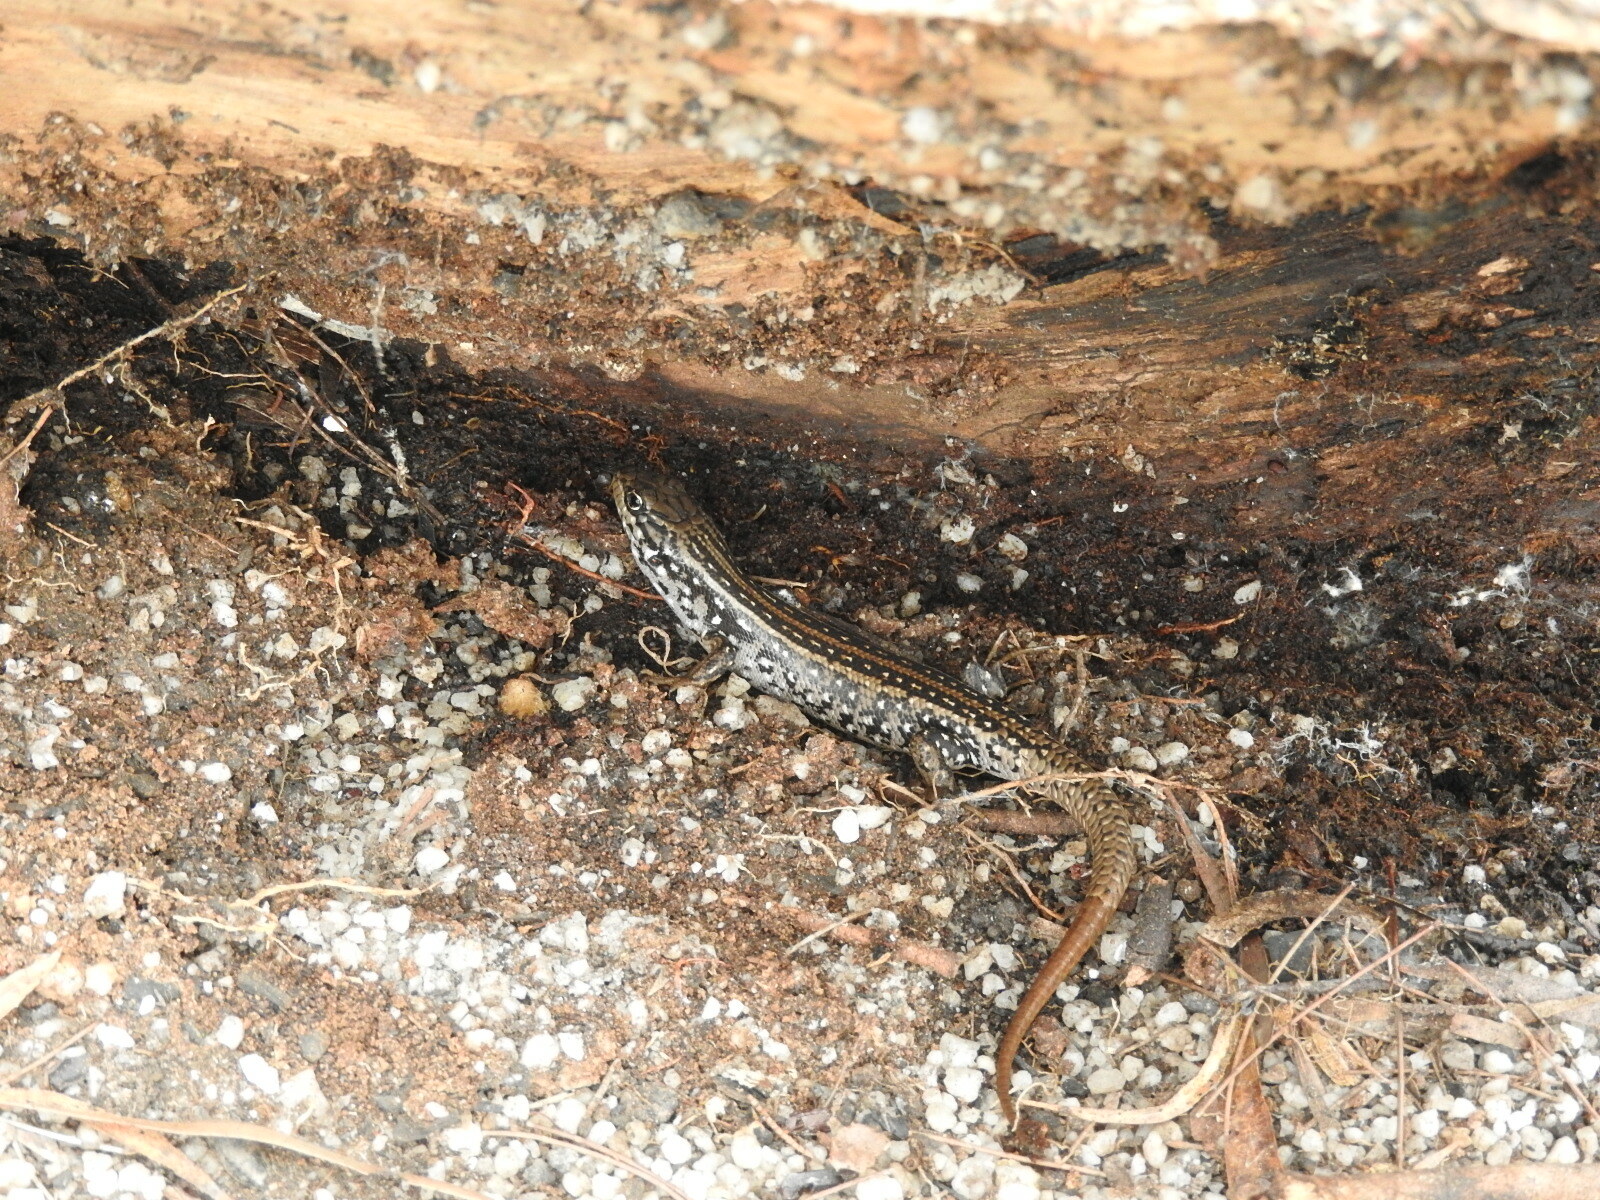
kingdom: Animalia
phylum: Chordata
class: Squamata
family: Scincidae
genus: Liopholis
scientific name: Liopholis whitii
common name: White's rock-skink
